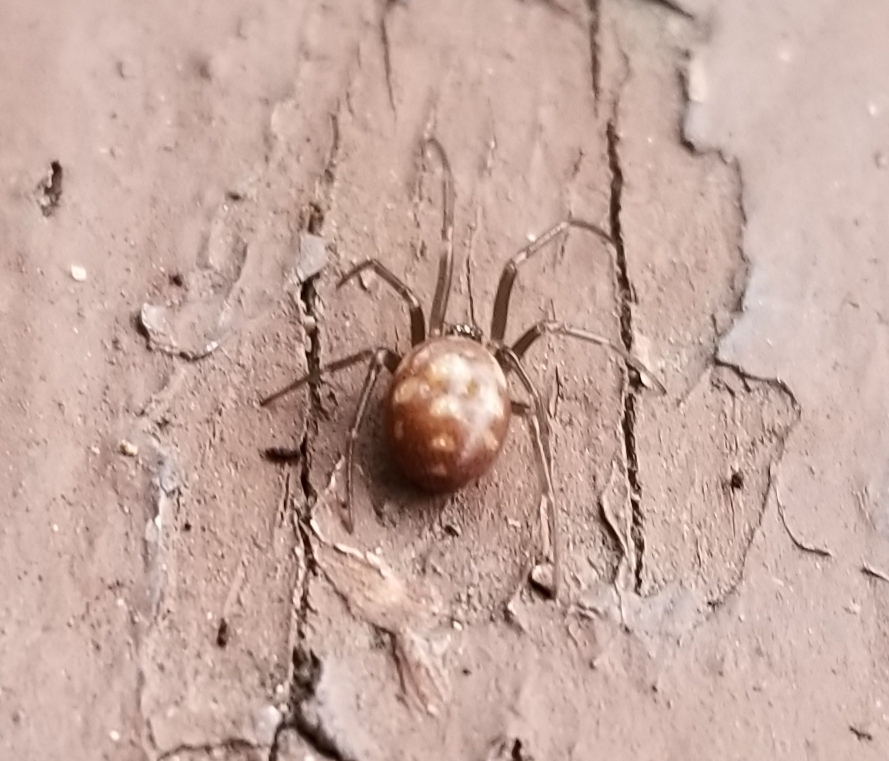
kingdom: Animalia
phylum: Arthropoda
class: Arachnida
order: Araneae
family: Theridiidae
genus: Steatoda
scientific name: Steatoda grossa
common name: False black widow
